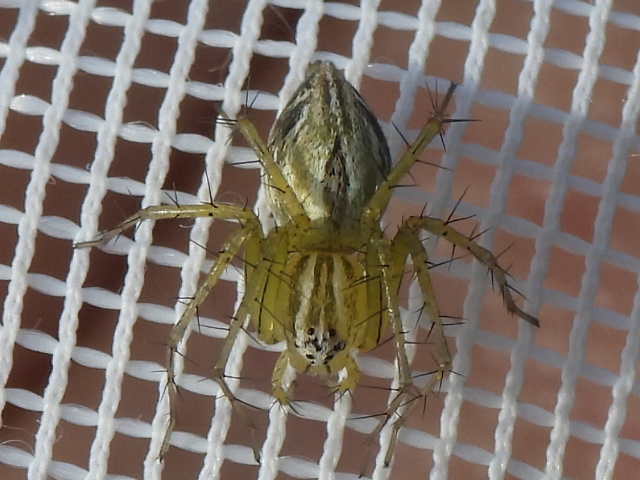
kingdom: Animalia
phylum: Arthropoda
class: Arachnida
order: Araneae
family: Oxyopidae
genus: Oxyopes
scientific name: Oxyopes salticus
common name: Lynx spiders
